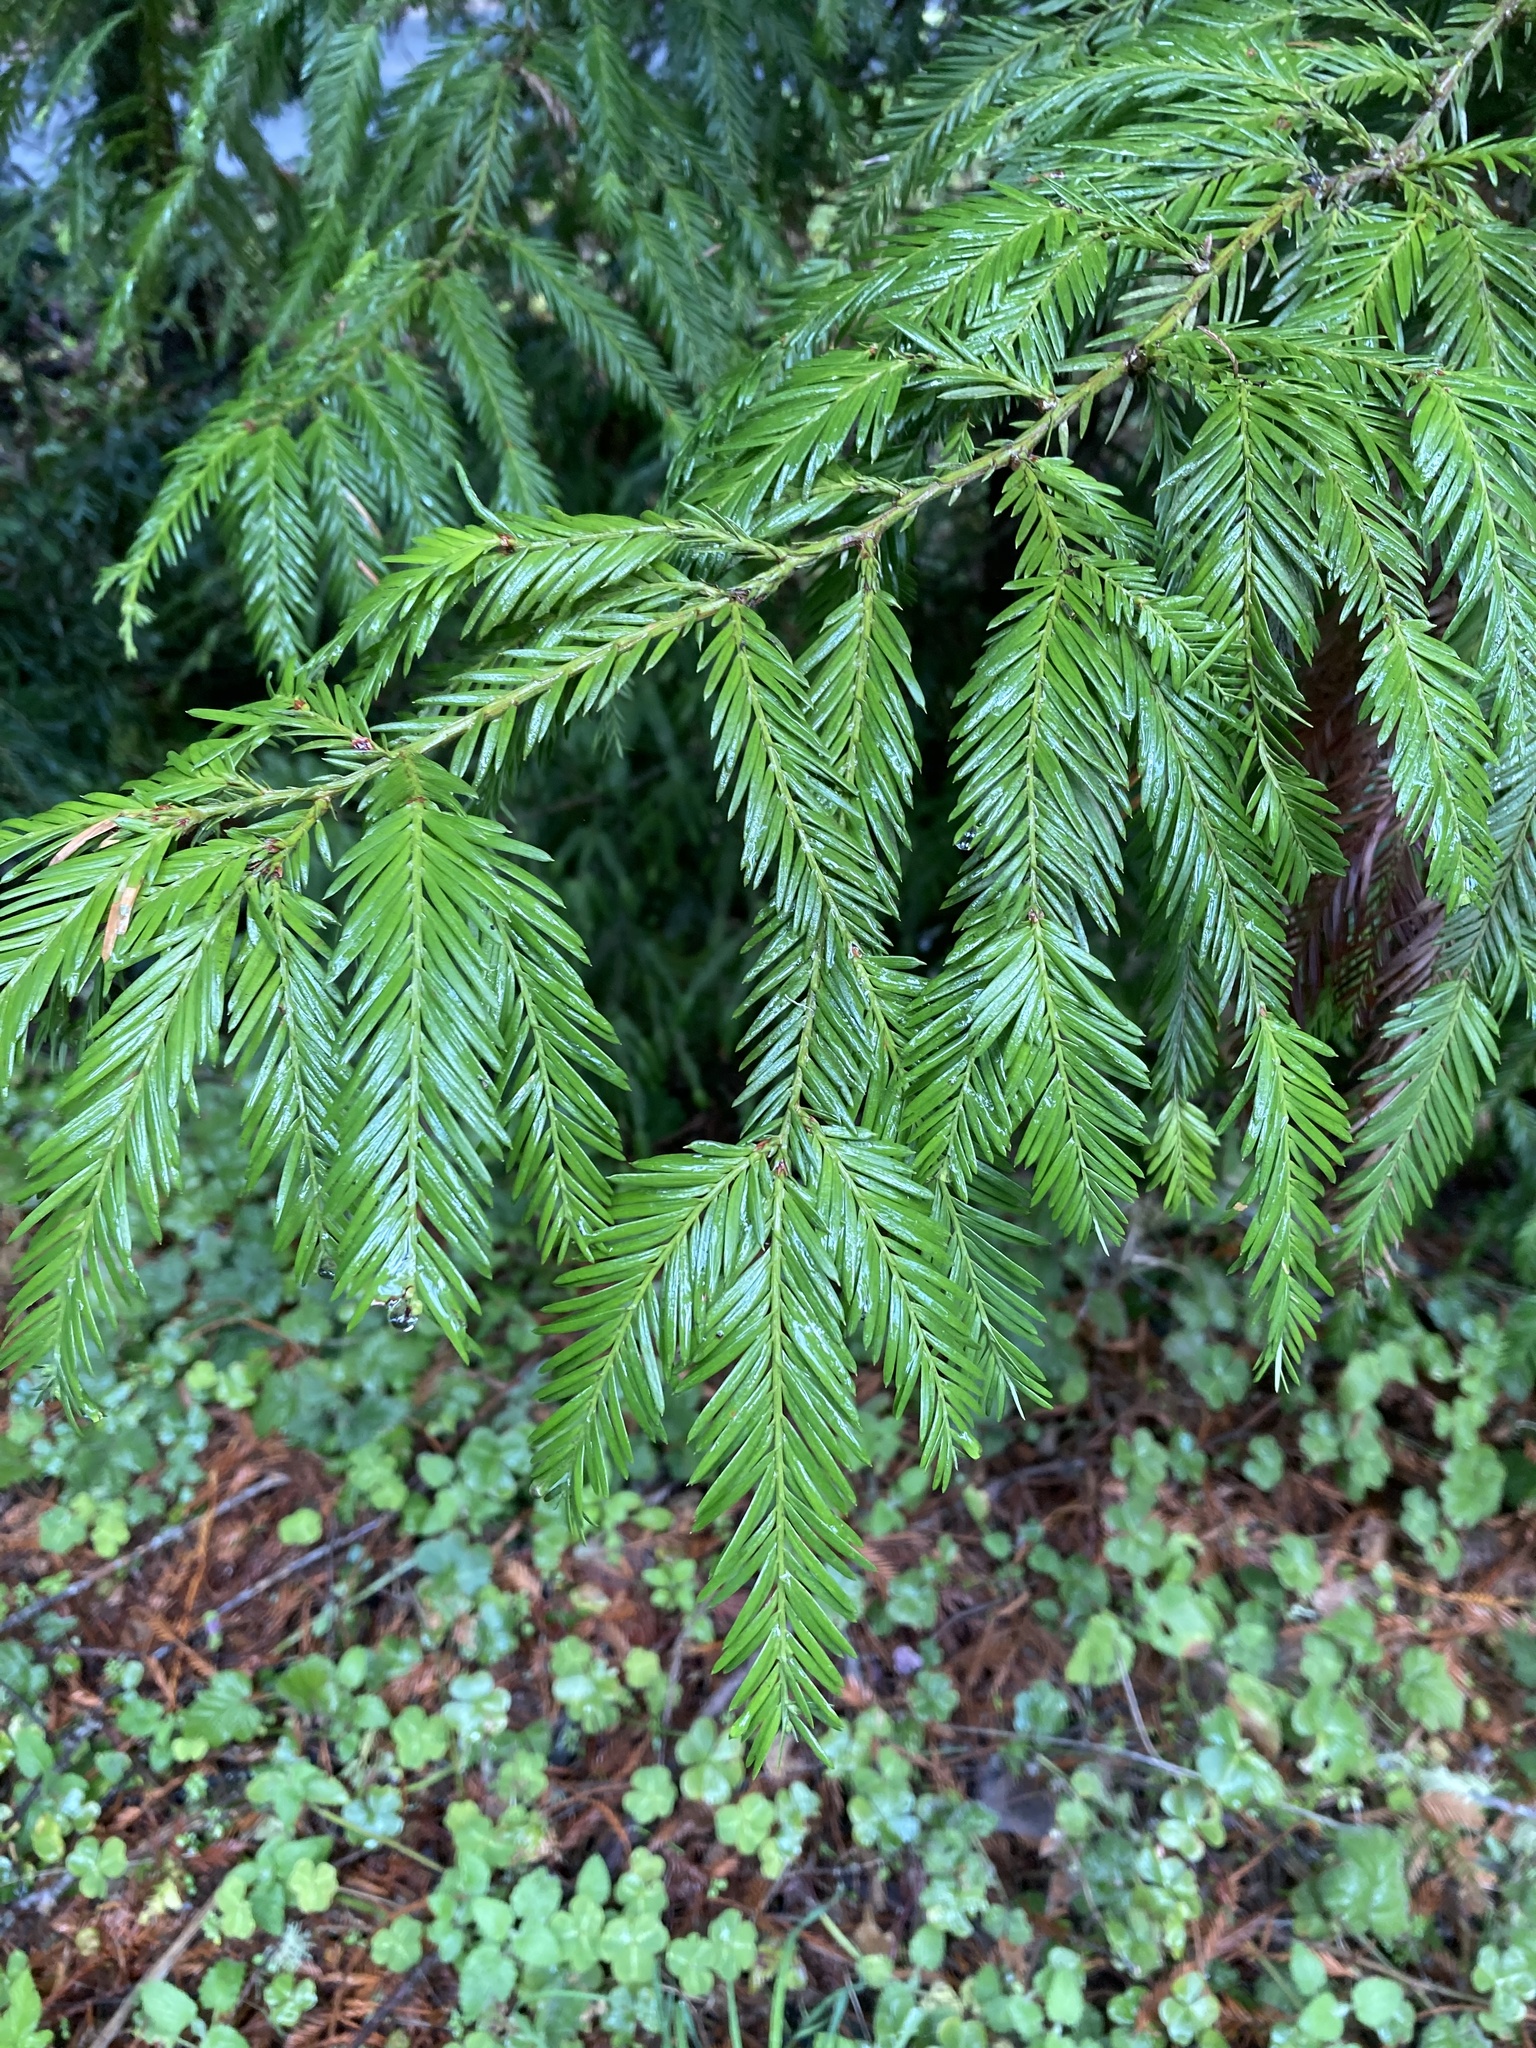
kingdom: Plantae
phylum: Tracheophyta
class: Pinopsida
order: Pinales
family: Cupressaceae
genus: Sequoia
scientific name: Sequoia sempervirens
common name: Coast redwood
